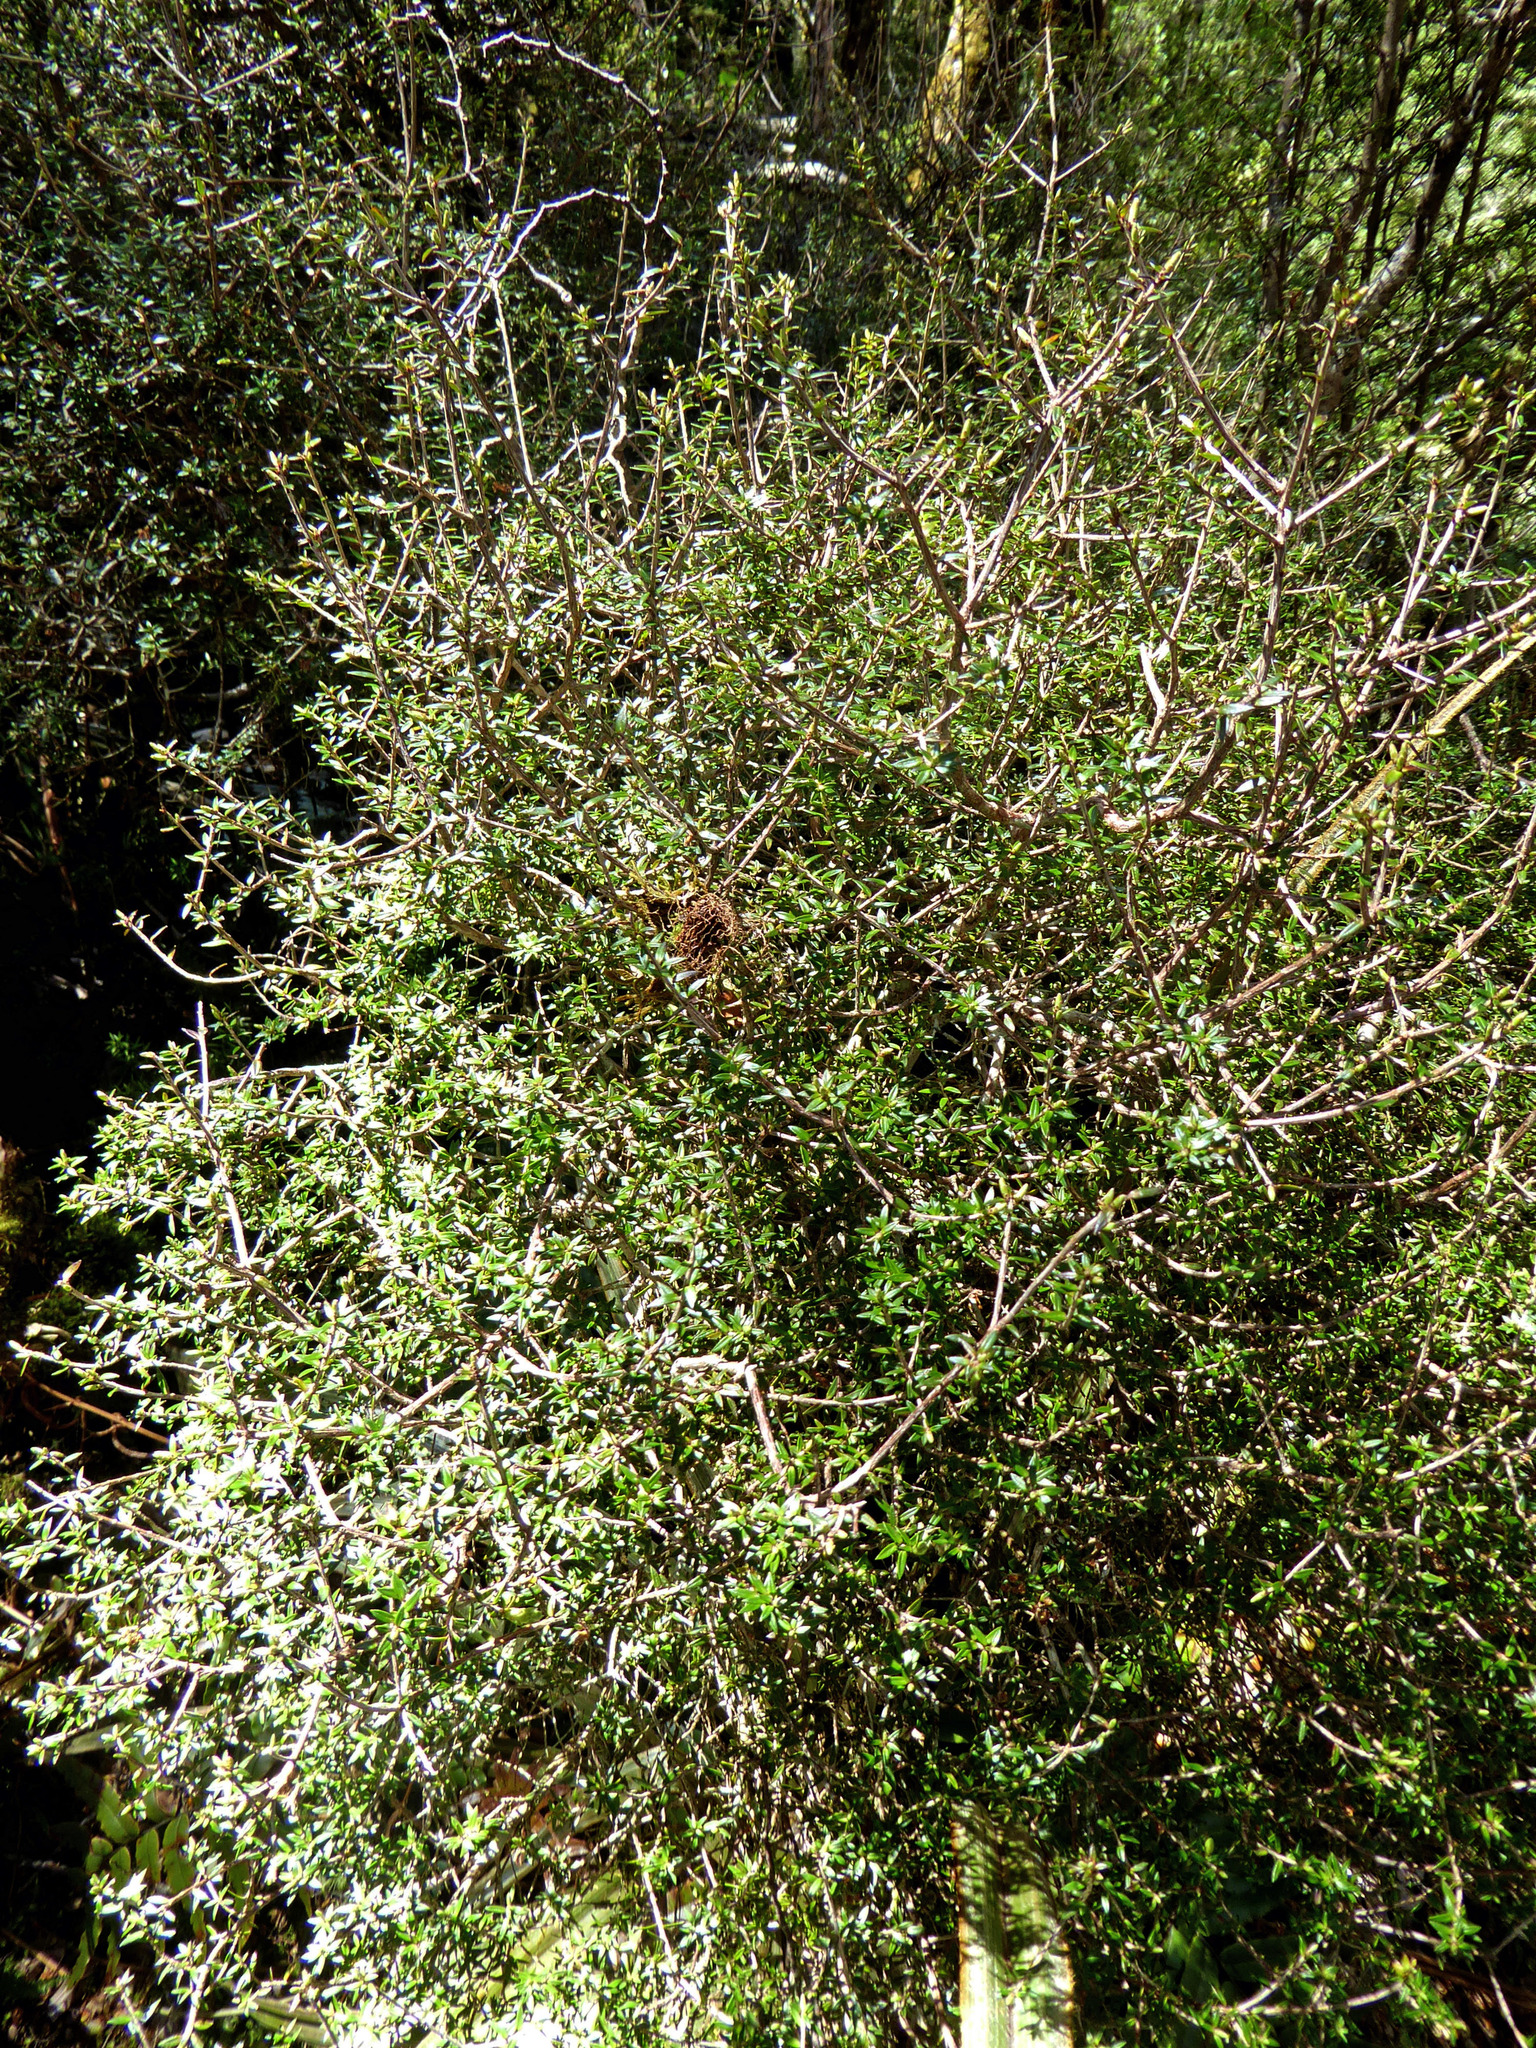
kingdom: Plantae
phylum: Tracheophyta
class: Magnoliopsida
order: Ericales
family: Ericaceae
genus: Archeria
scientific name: Archeria traversii
